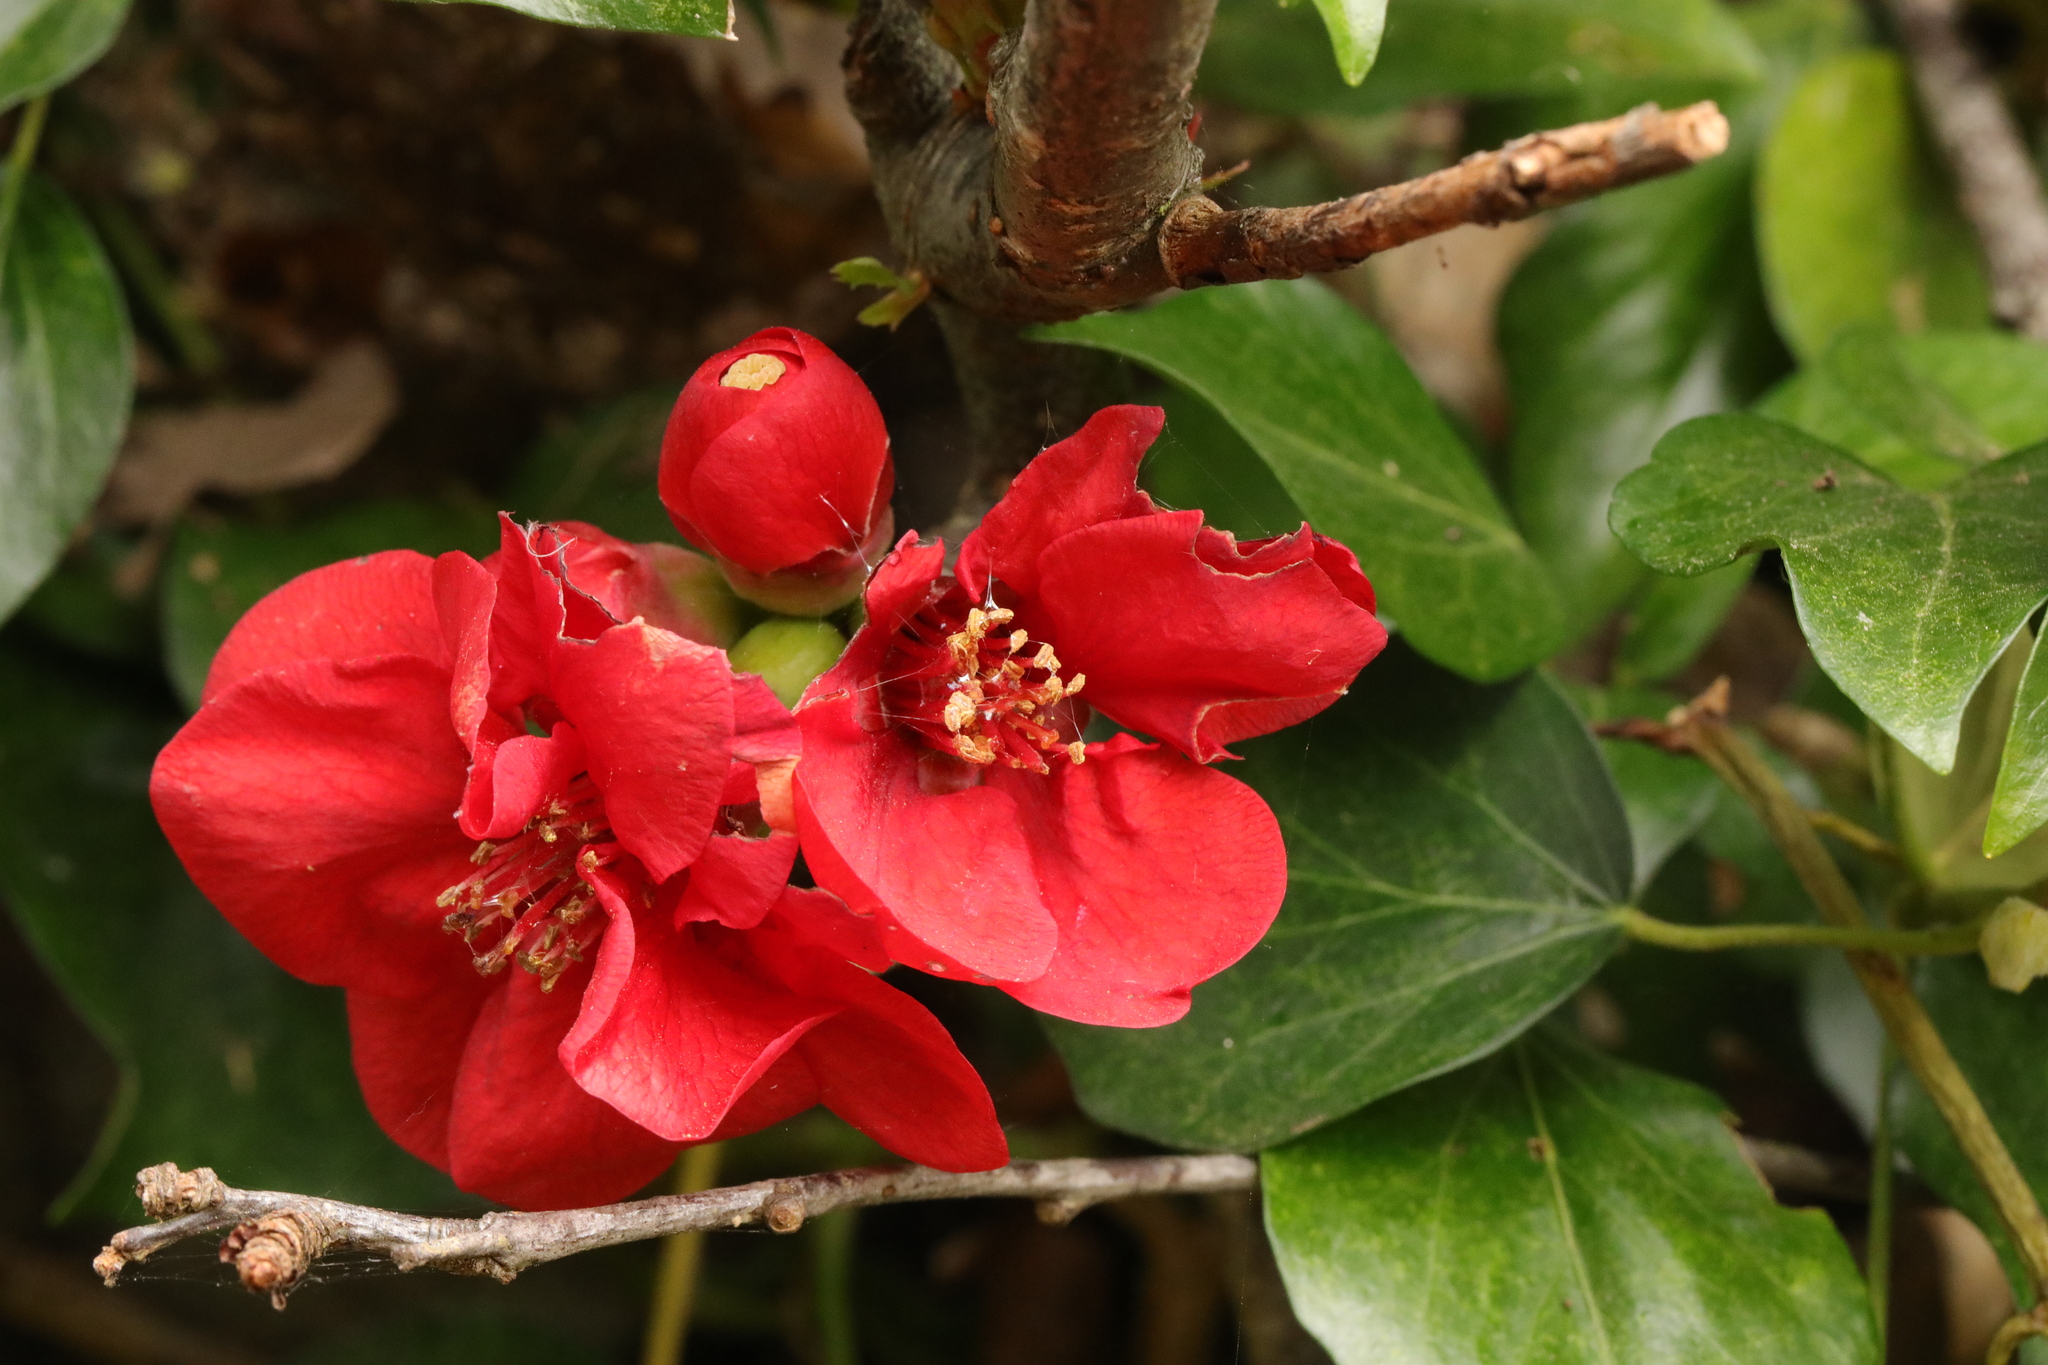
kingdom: Plantae
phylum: Tracheophyta
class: Magnoliopsida
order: Rosales
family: Rosaceae
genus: Chaenomeles
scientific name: Chaenomeles speciosa
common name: Japanese quince
